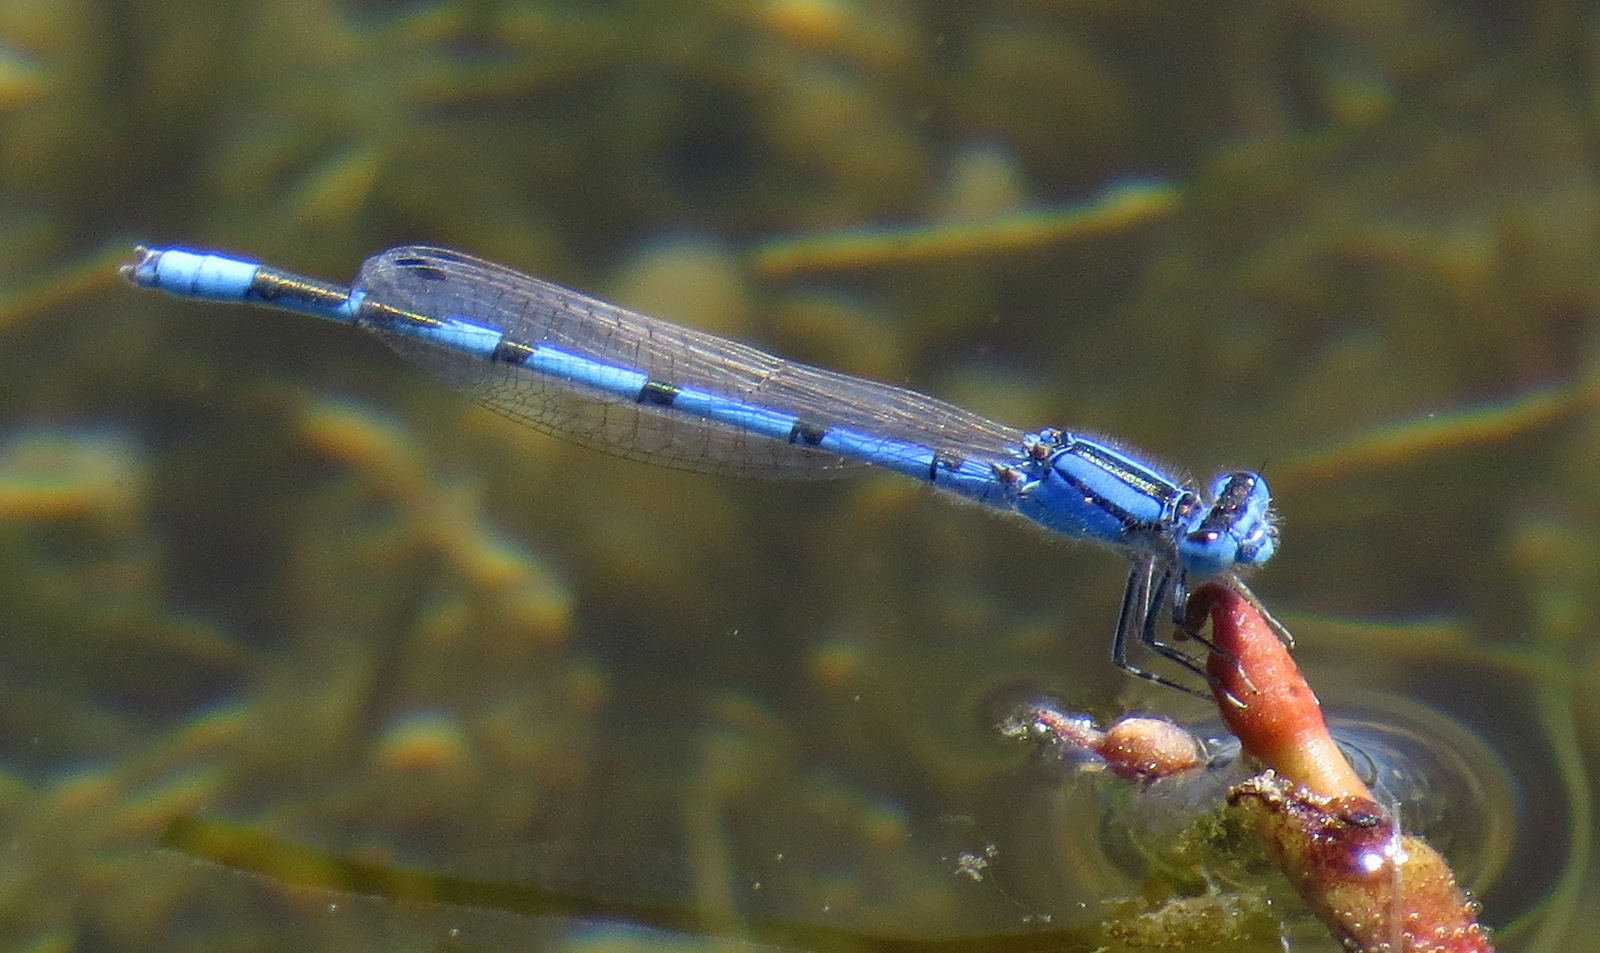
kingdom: Animalia
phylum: Arthropoda
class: Insecta
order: Odonata
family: Coenagrionidae
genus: Enallagma
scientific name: Enallagma civile
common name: Damselfly
